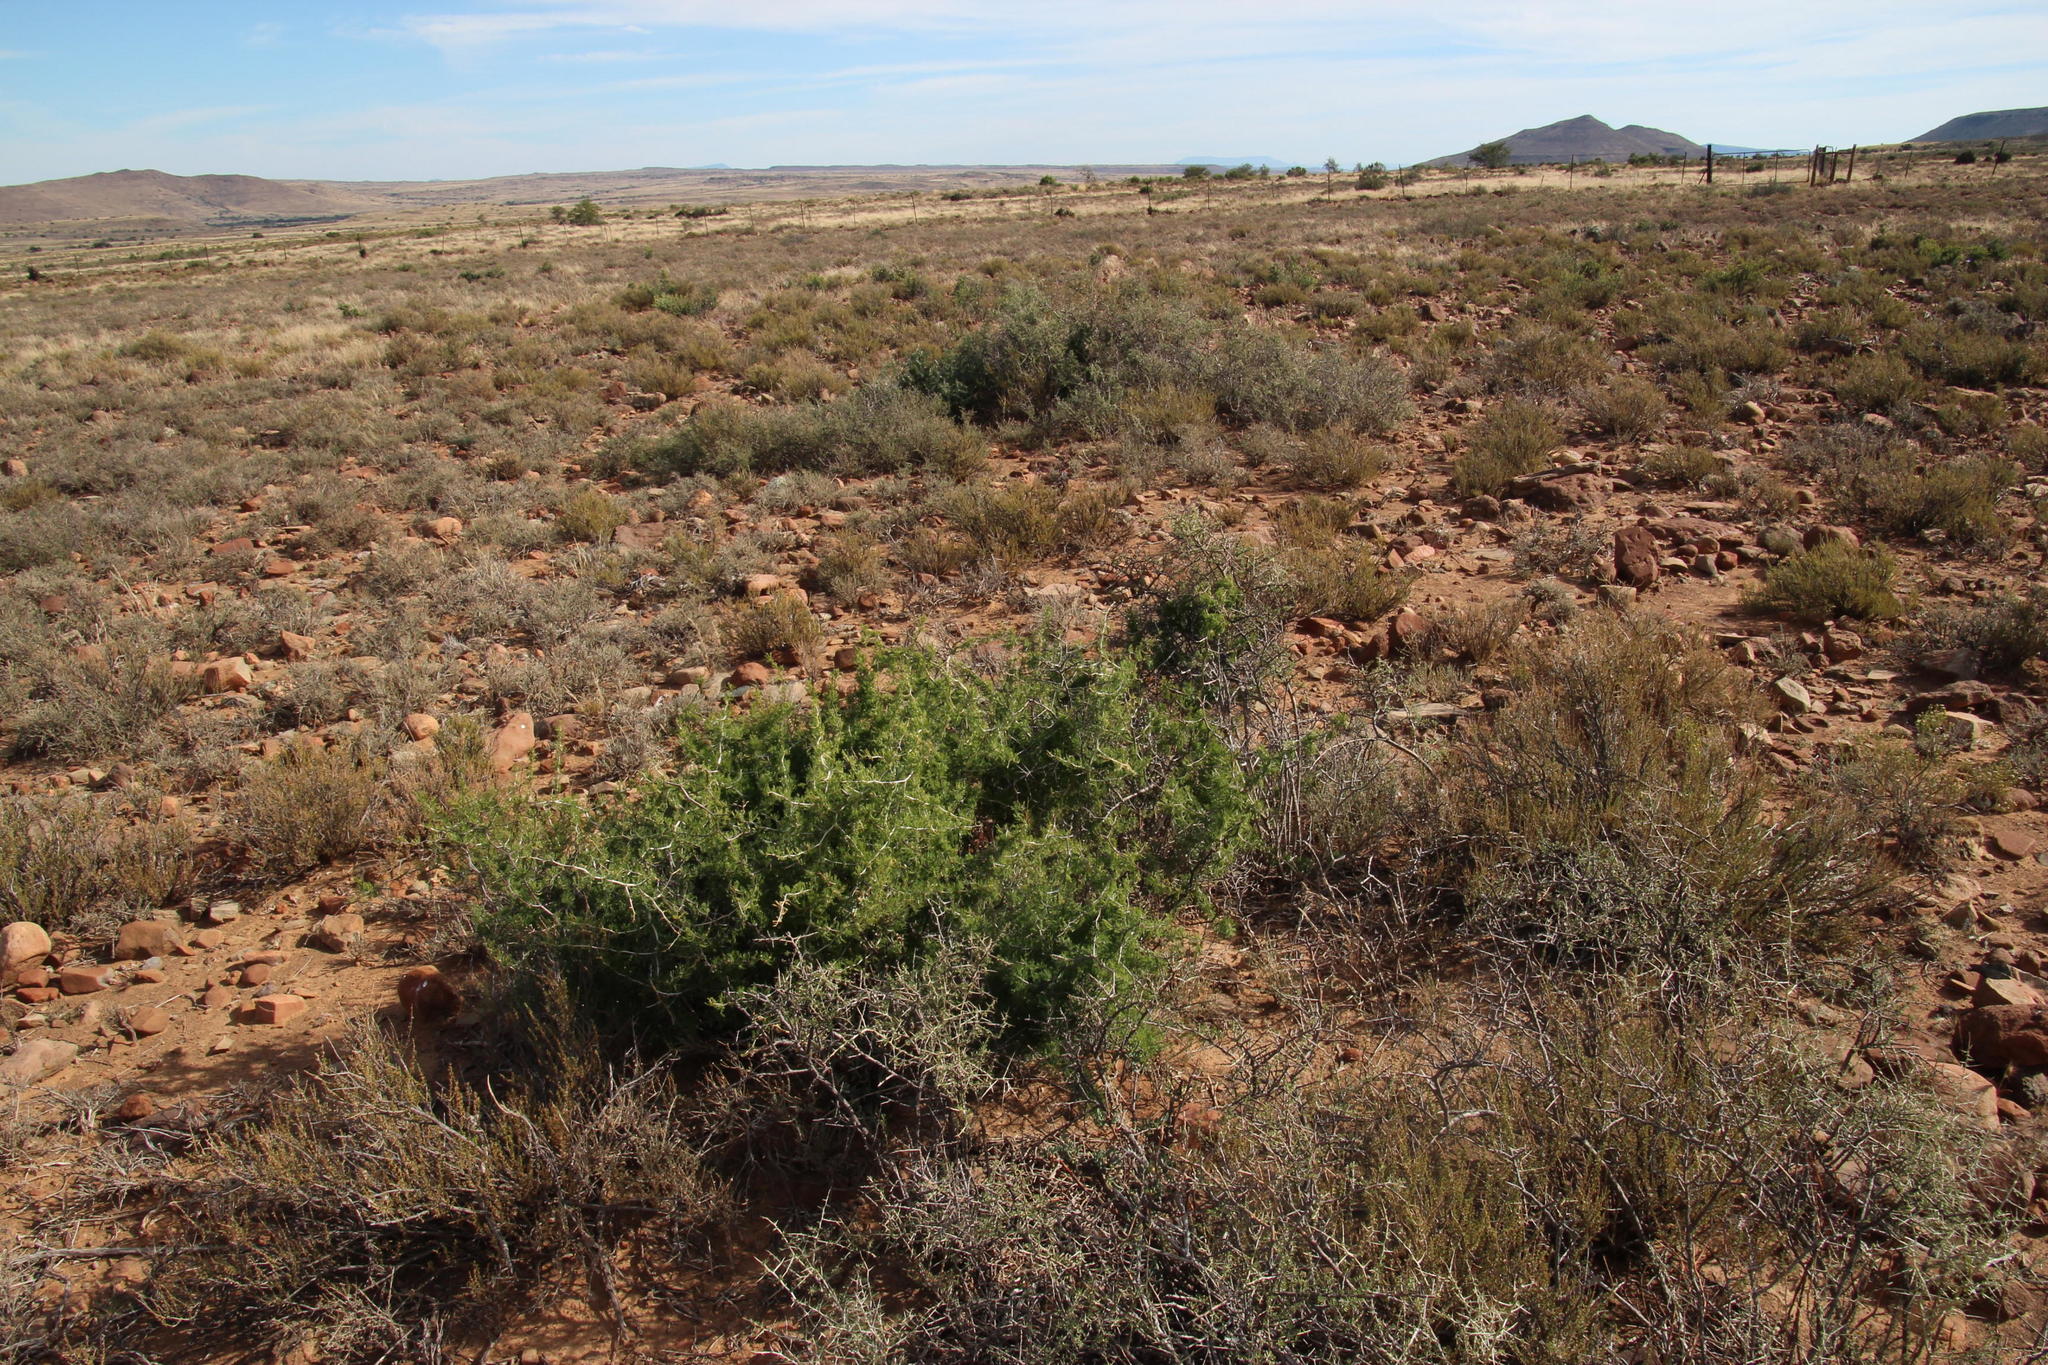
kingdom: Plantae
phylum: Tracheophyta
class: Liliopsida
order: Asparagales
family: Asparagaceae
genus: Asparagus
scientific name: Asparagus burchellii
